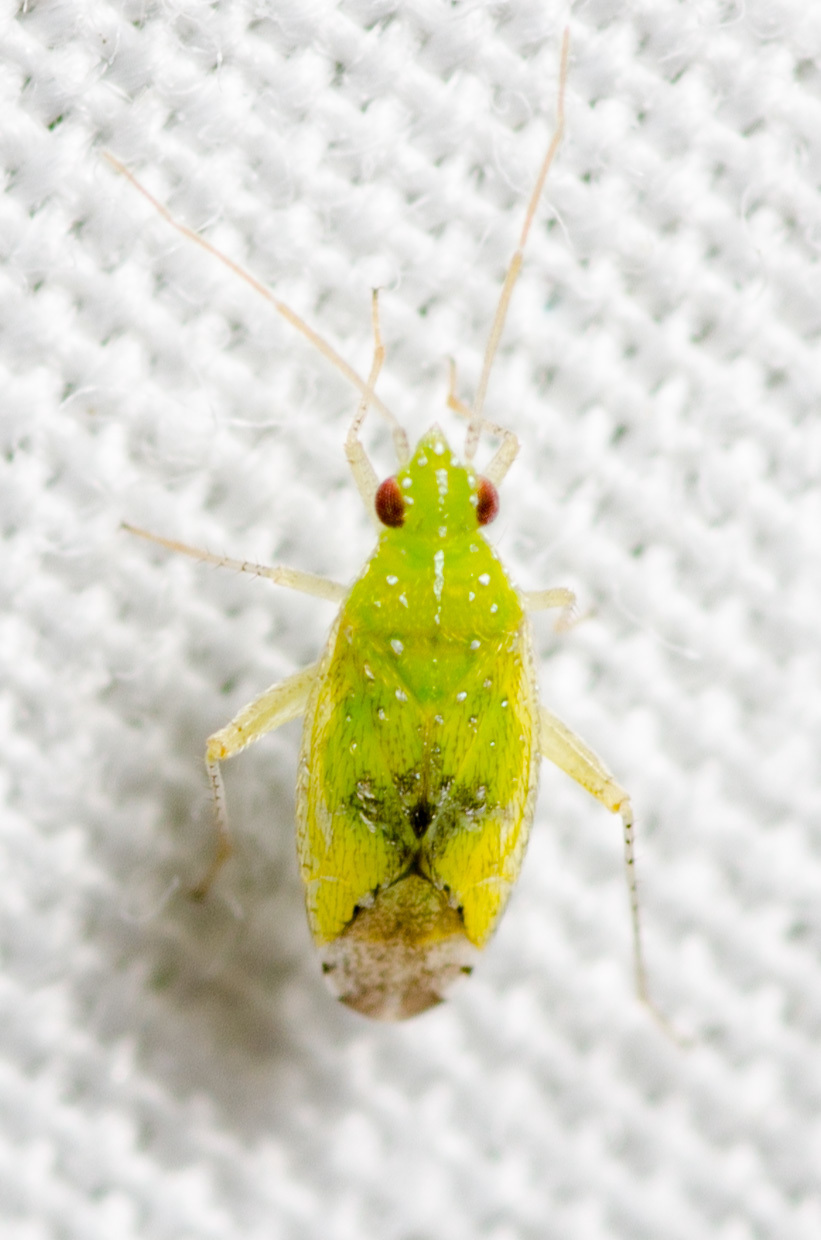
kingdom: Animalia
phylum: Arthropoda
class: Insecta
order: Hemiptera
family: Miridae
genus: Keltonia
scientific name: Keltonia tuckeri
